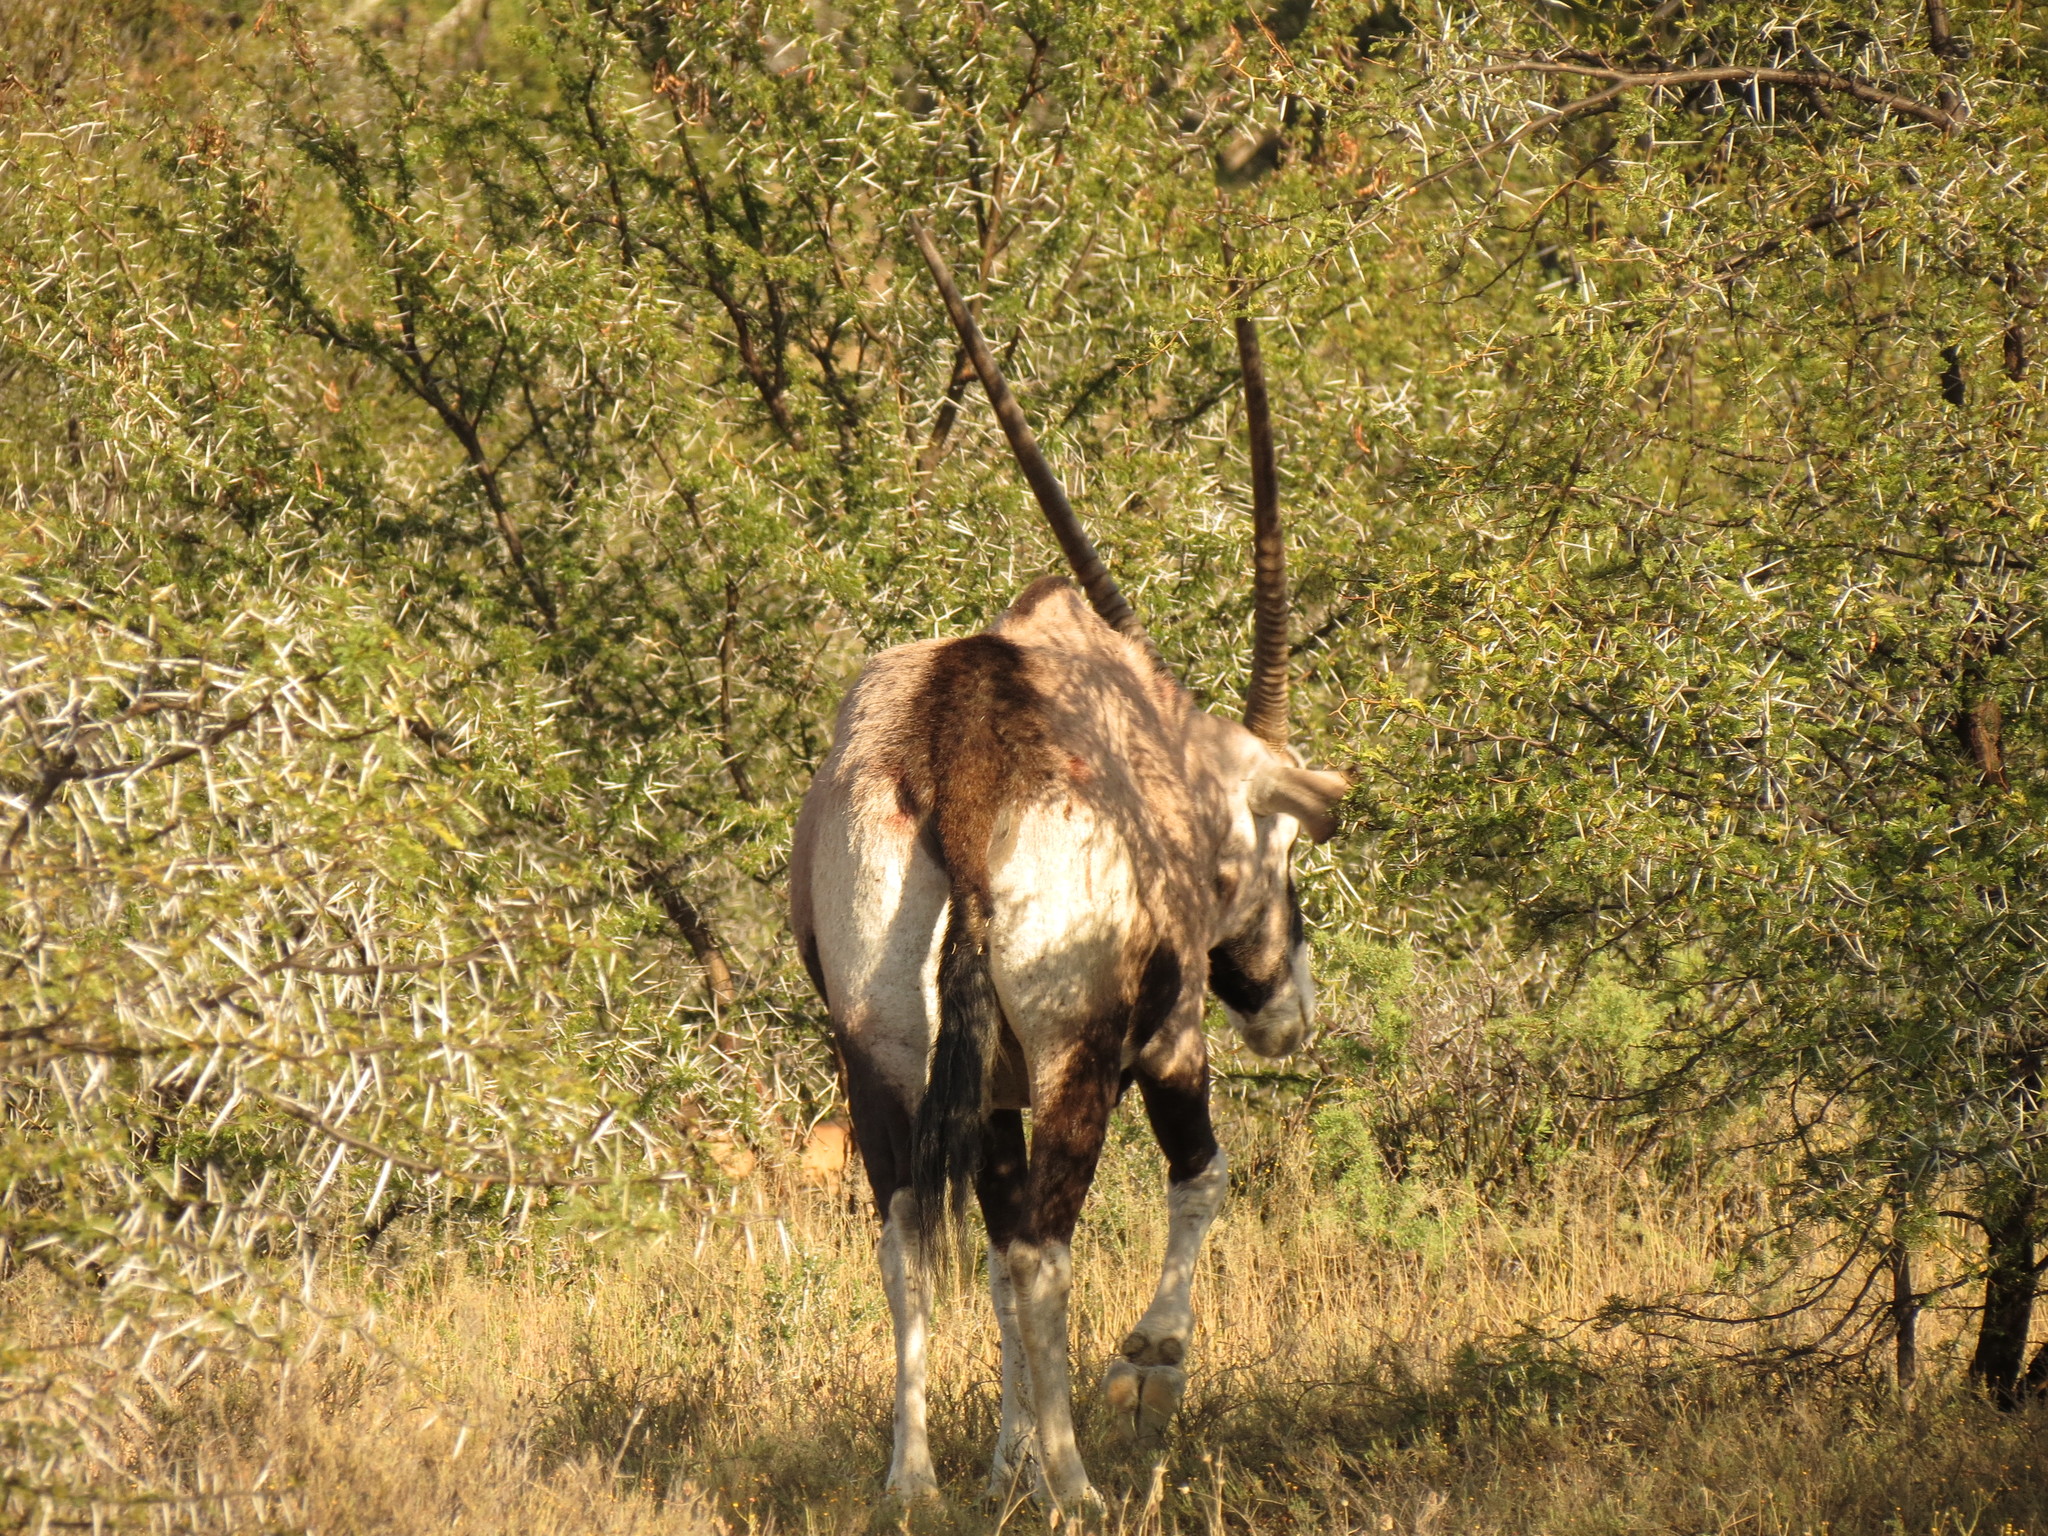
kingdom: Animalia
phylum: Chordata
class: Mammalia
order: Artiodactyla
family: Bovidae
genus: Oryx
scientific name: Oryx gazella
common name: Gemsbok
